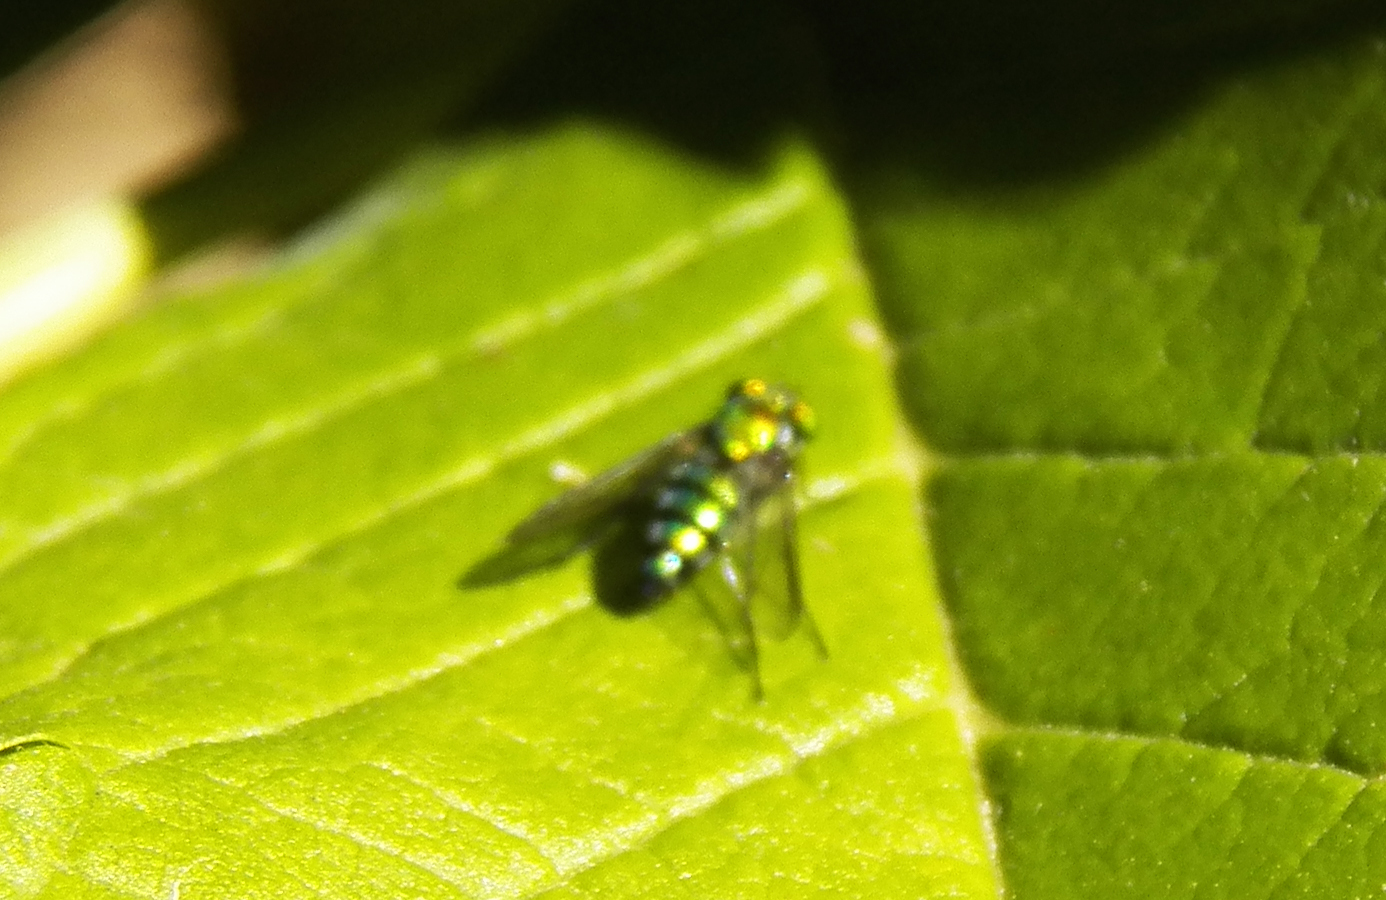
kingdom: Animalia
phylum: Arthropoda
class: Insecta
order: Diptera
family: Dolichopodidae
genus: Condylostylus
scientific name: Condylostylus longicornis
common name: Long-legged fly
